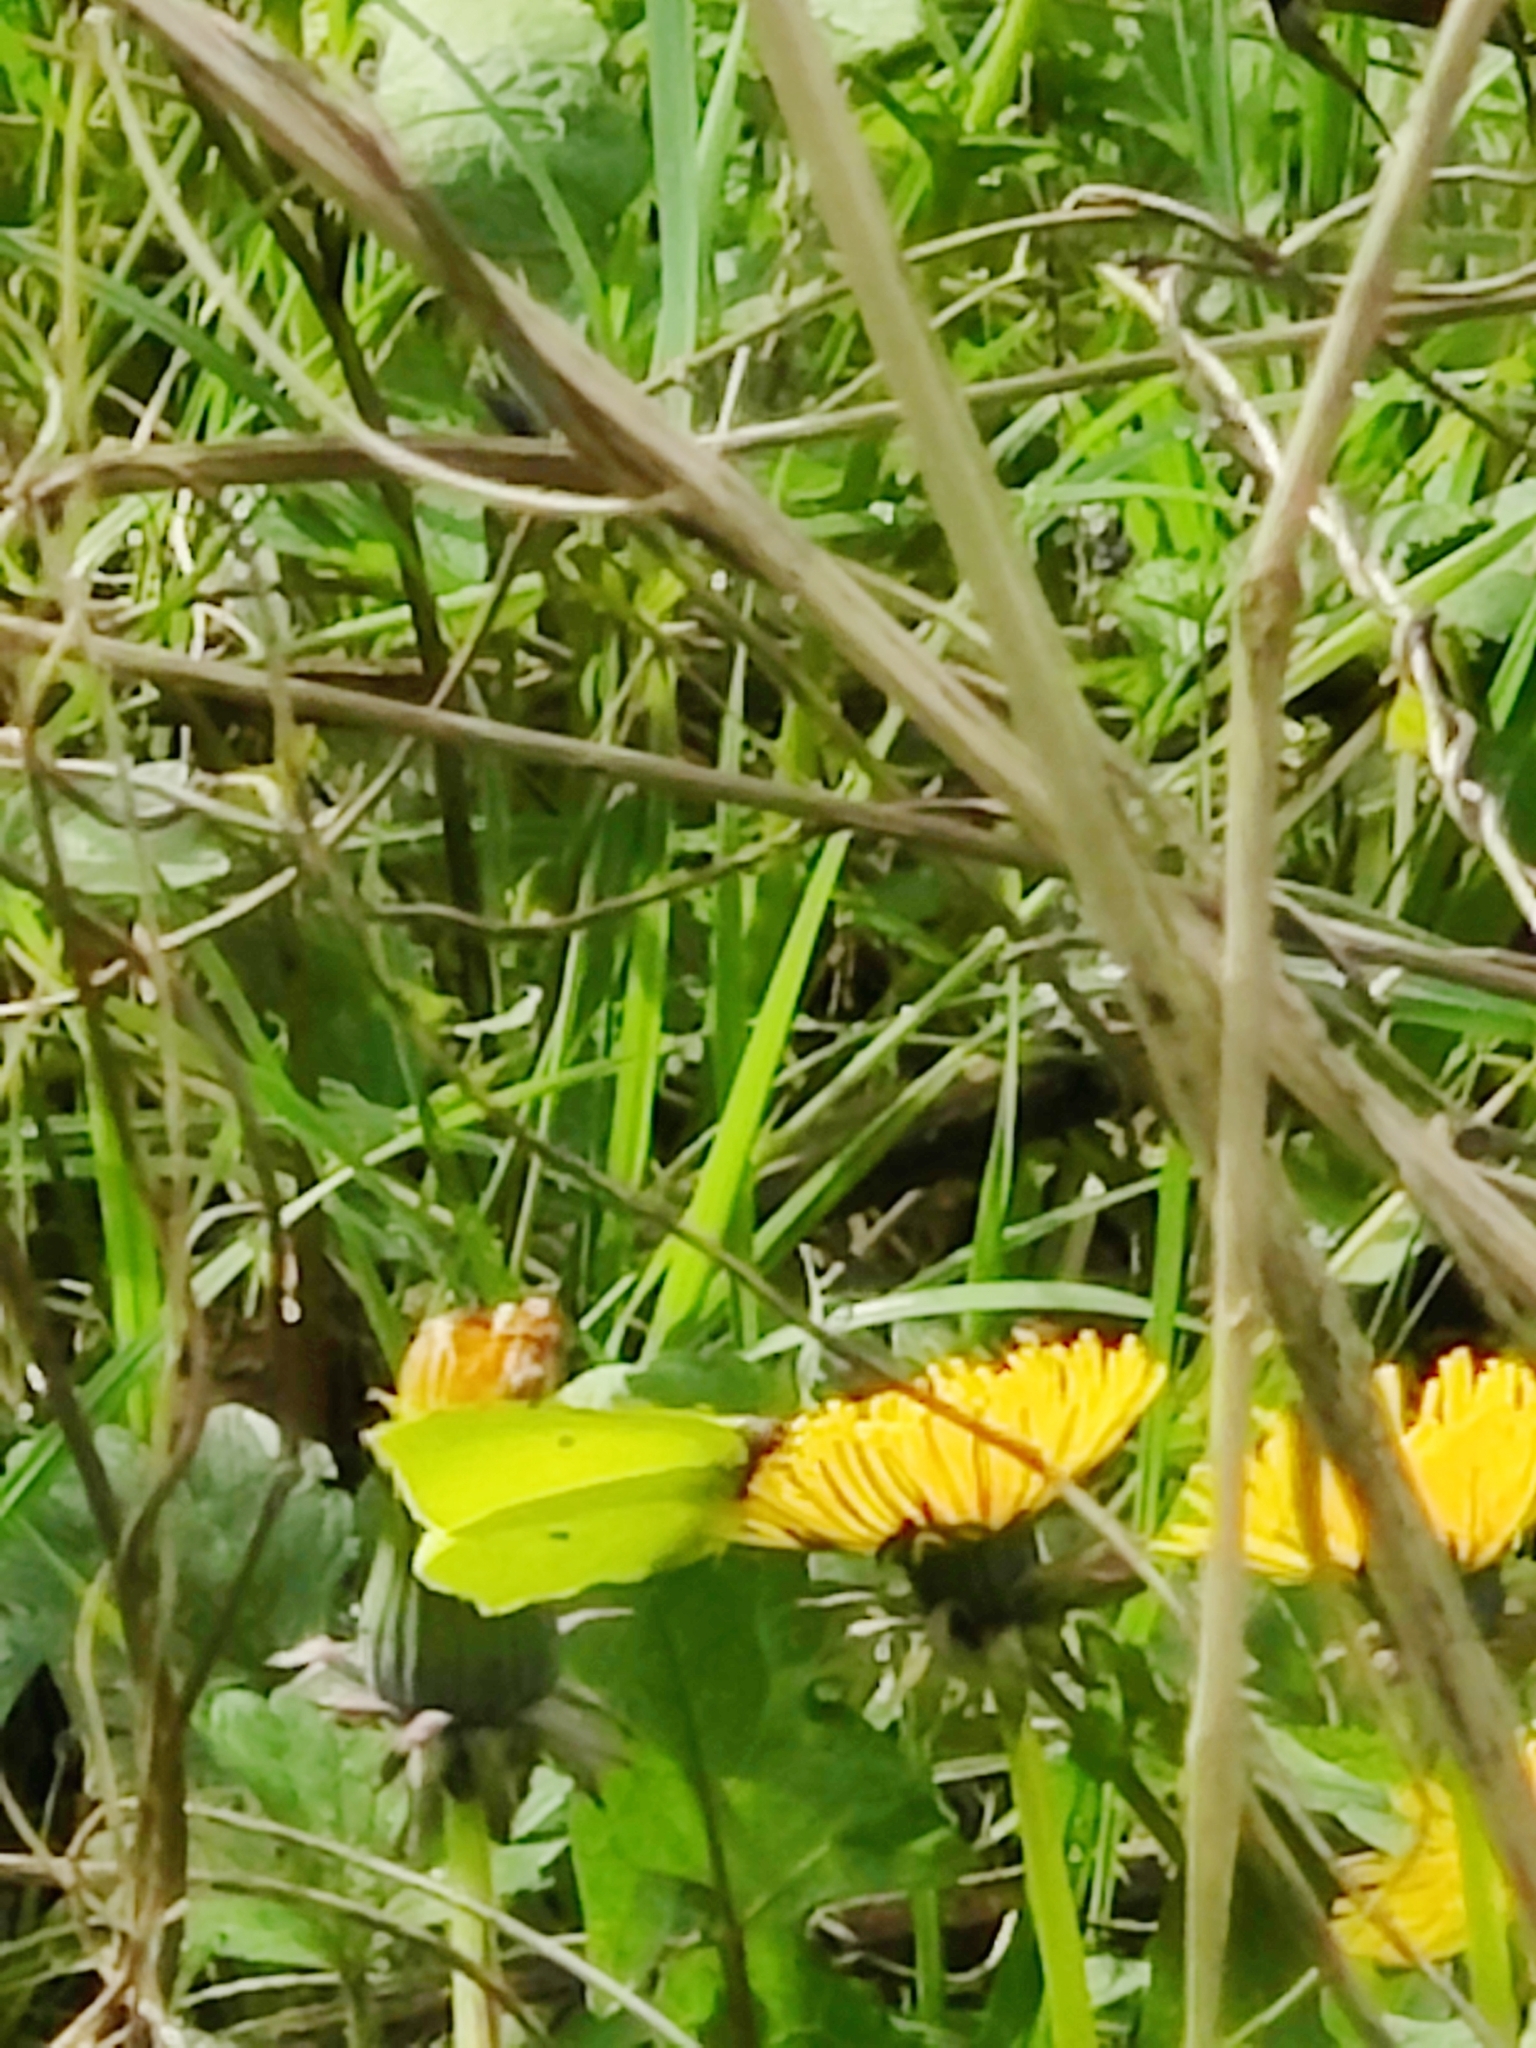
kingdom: Animalia
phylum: Arthropoda
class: Insecta
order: Lepidoptera
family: Pieridae
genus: Gonepteryx
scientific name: Gonepteryx rhamni
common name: Brimstone
